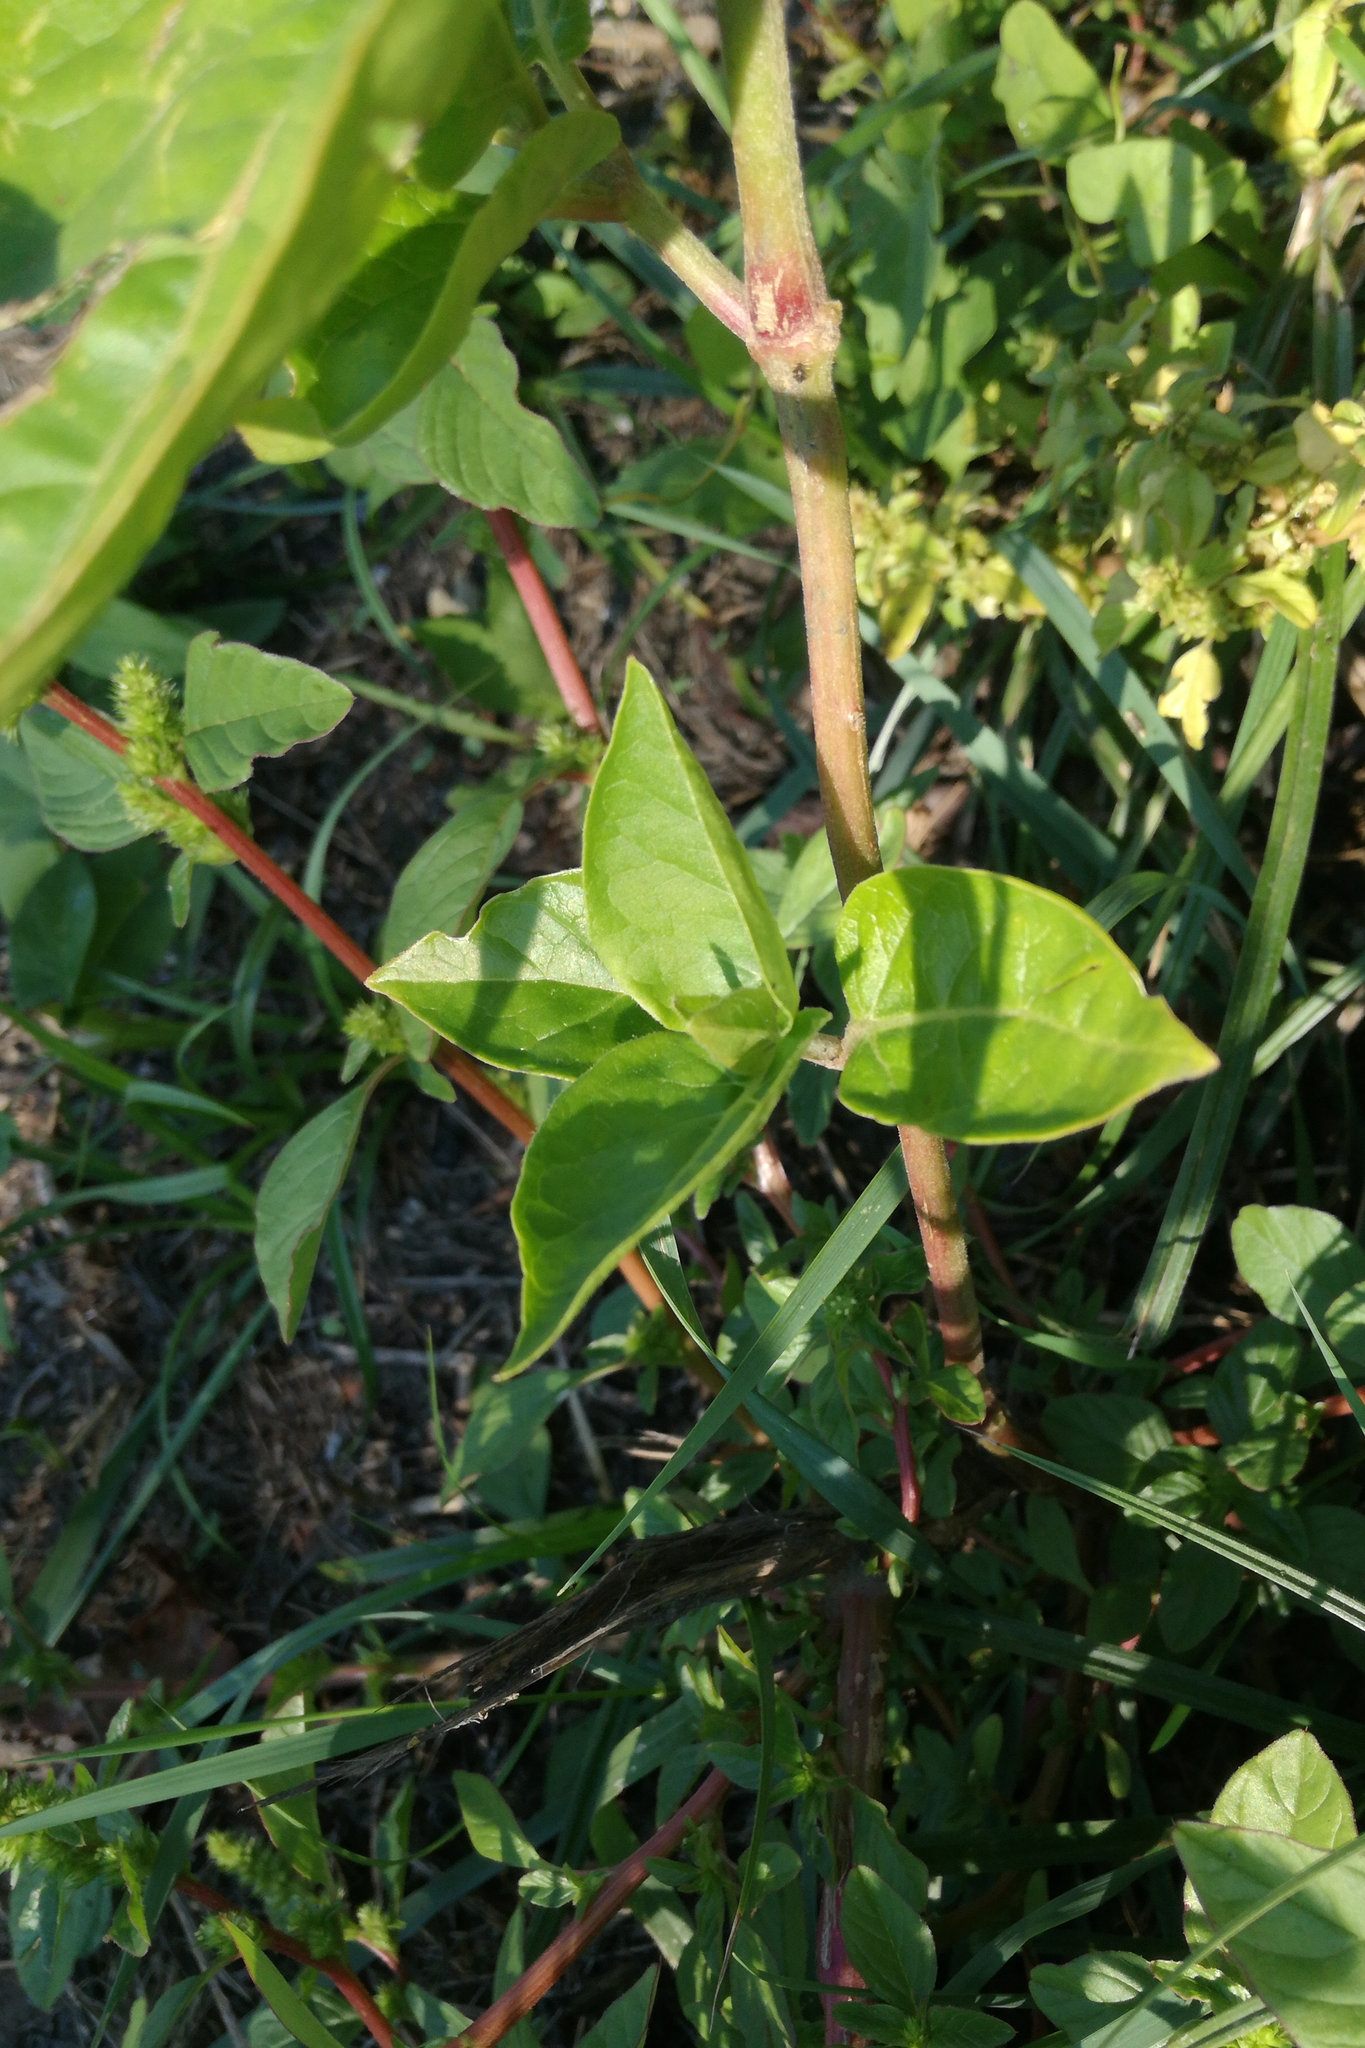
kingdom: Plantae
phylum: Tracheophyta
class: Magnoliopsida
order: Caryophyllales
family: Nyctaginaceae
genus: Mirabilis
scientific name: Mirabilis jalapa
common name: Marvel-of-peru
